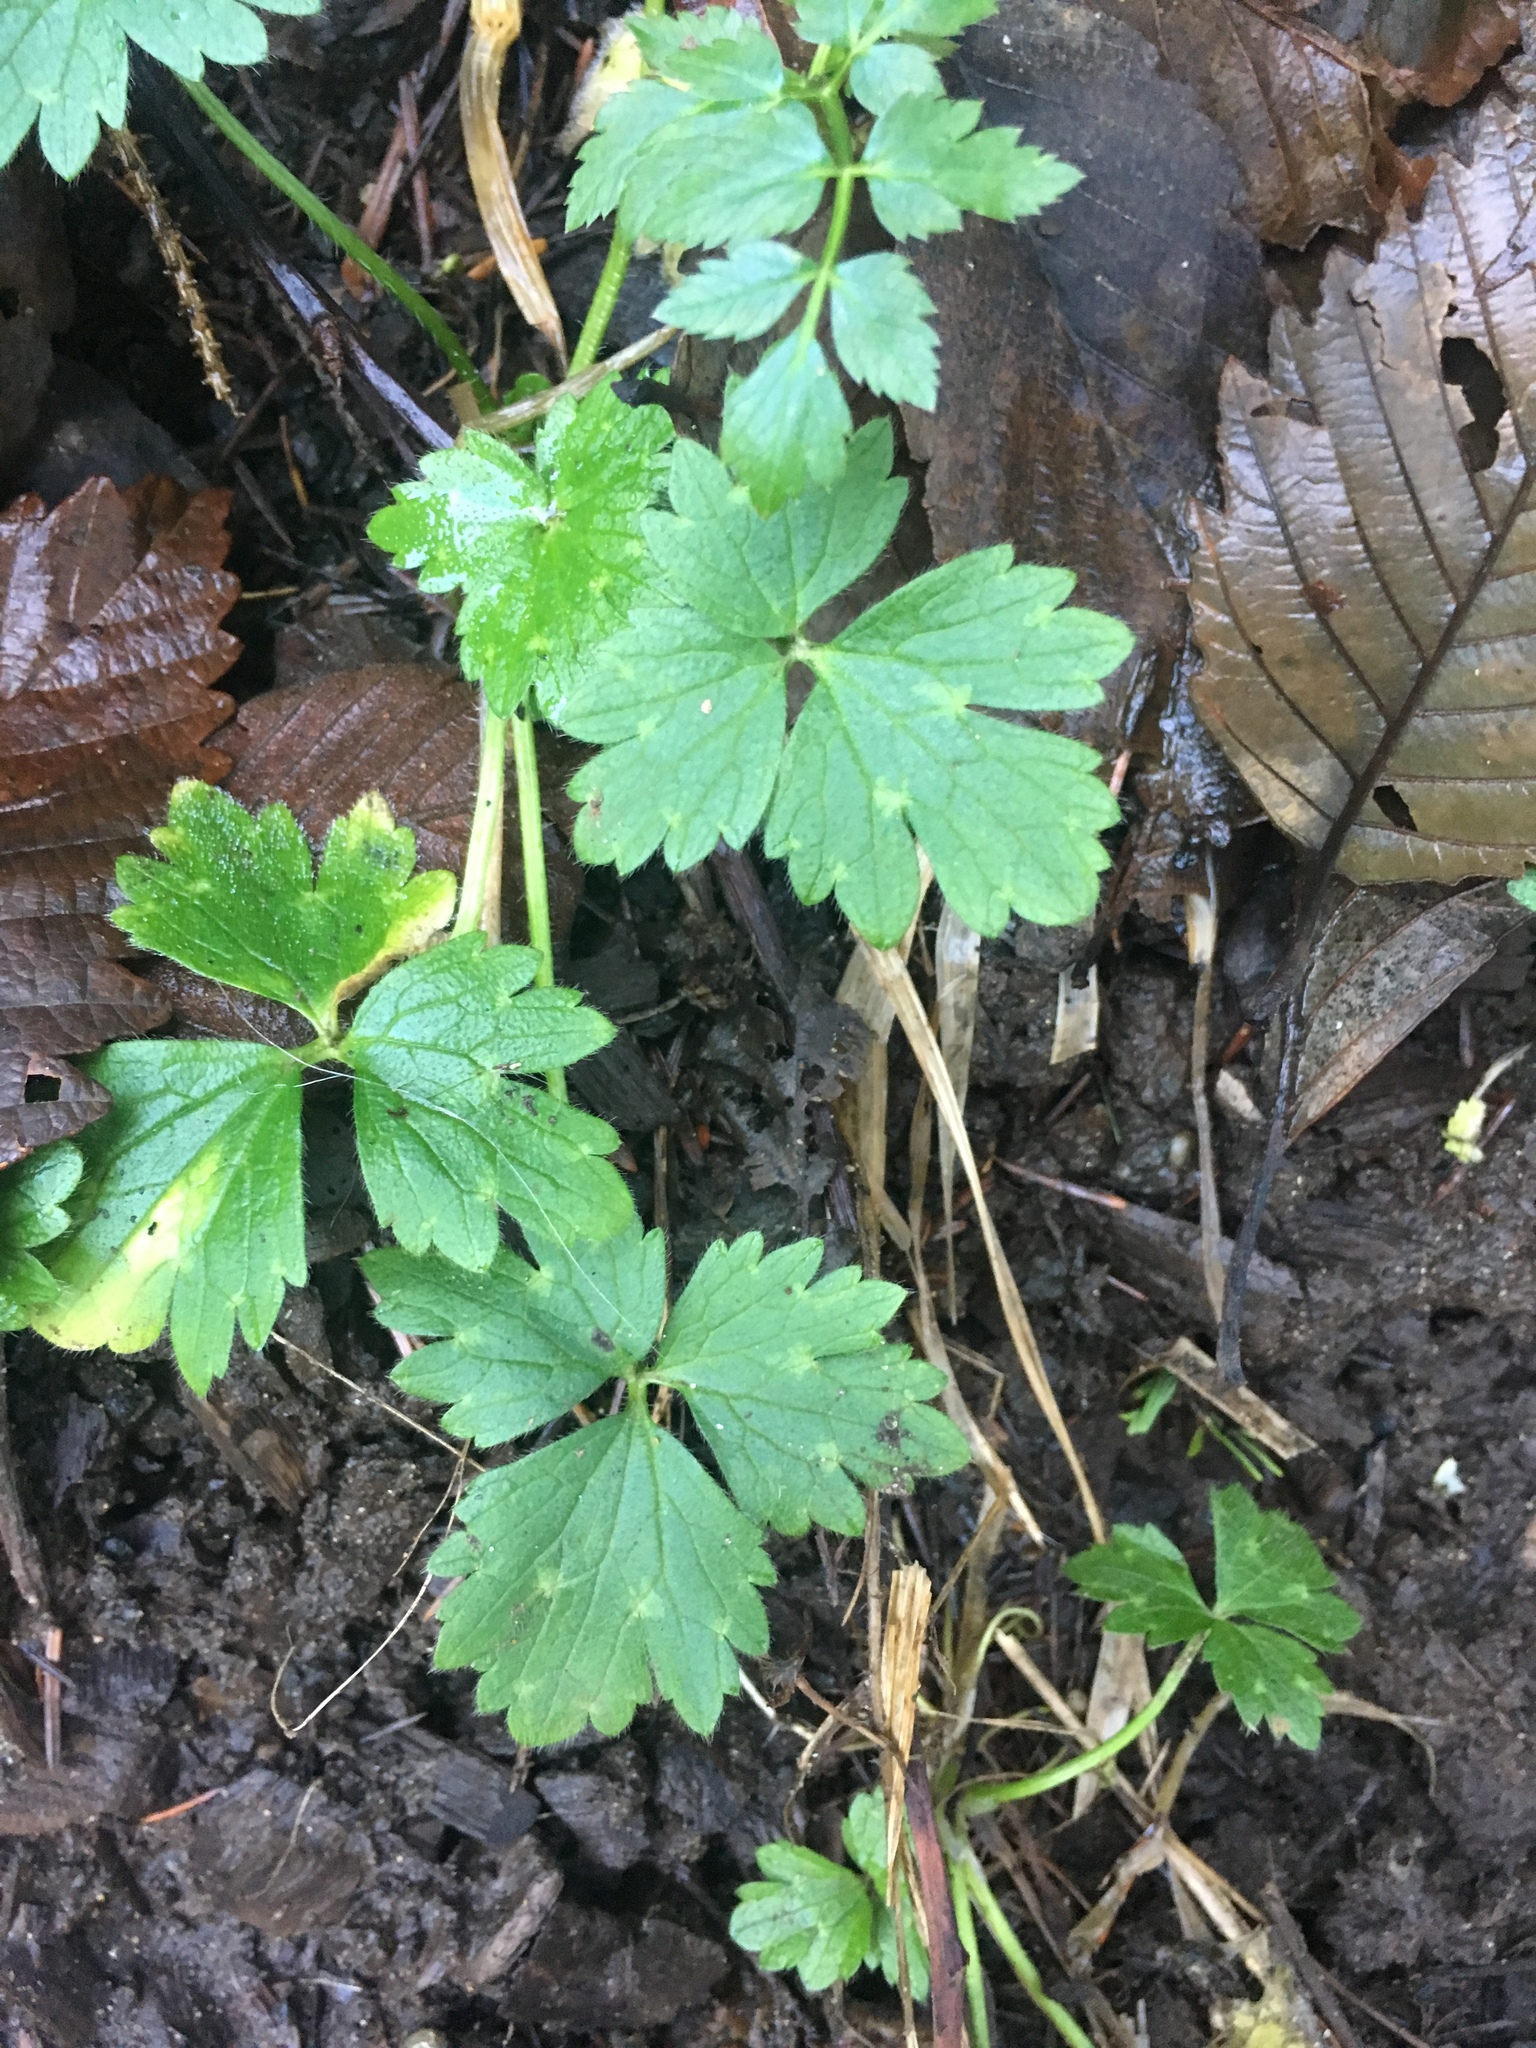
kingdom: Plantae
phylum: Tracheophyta
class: Magnoliopsida
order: Ranunculales
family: Ranunculaceae
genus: Ranunculus
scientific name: Ranunculus repens
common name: Creeping buttercup
